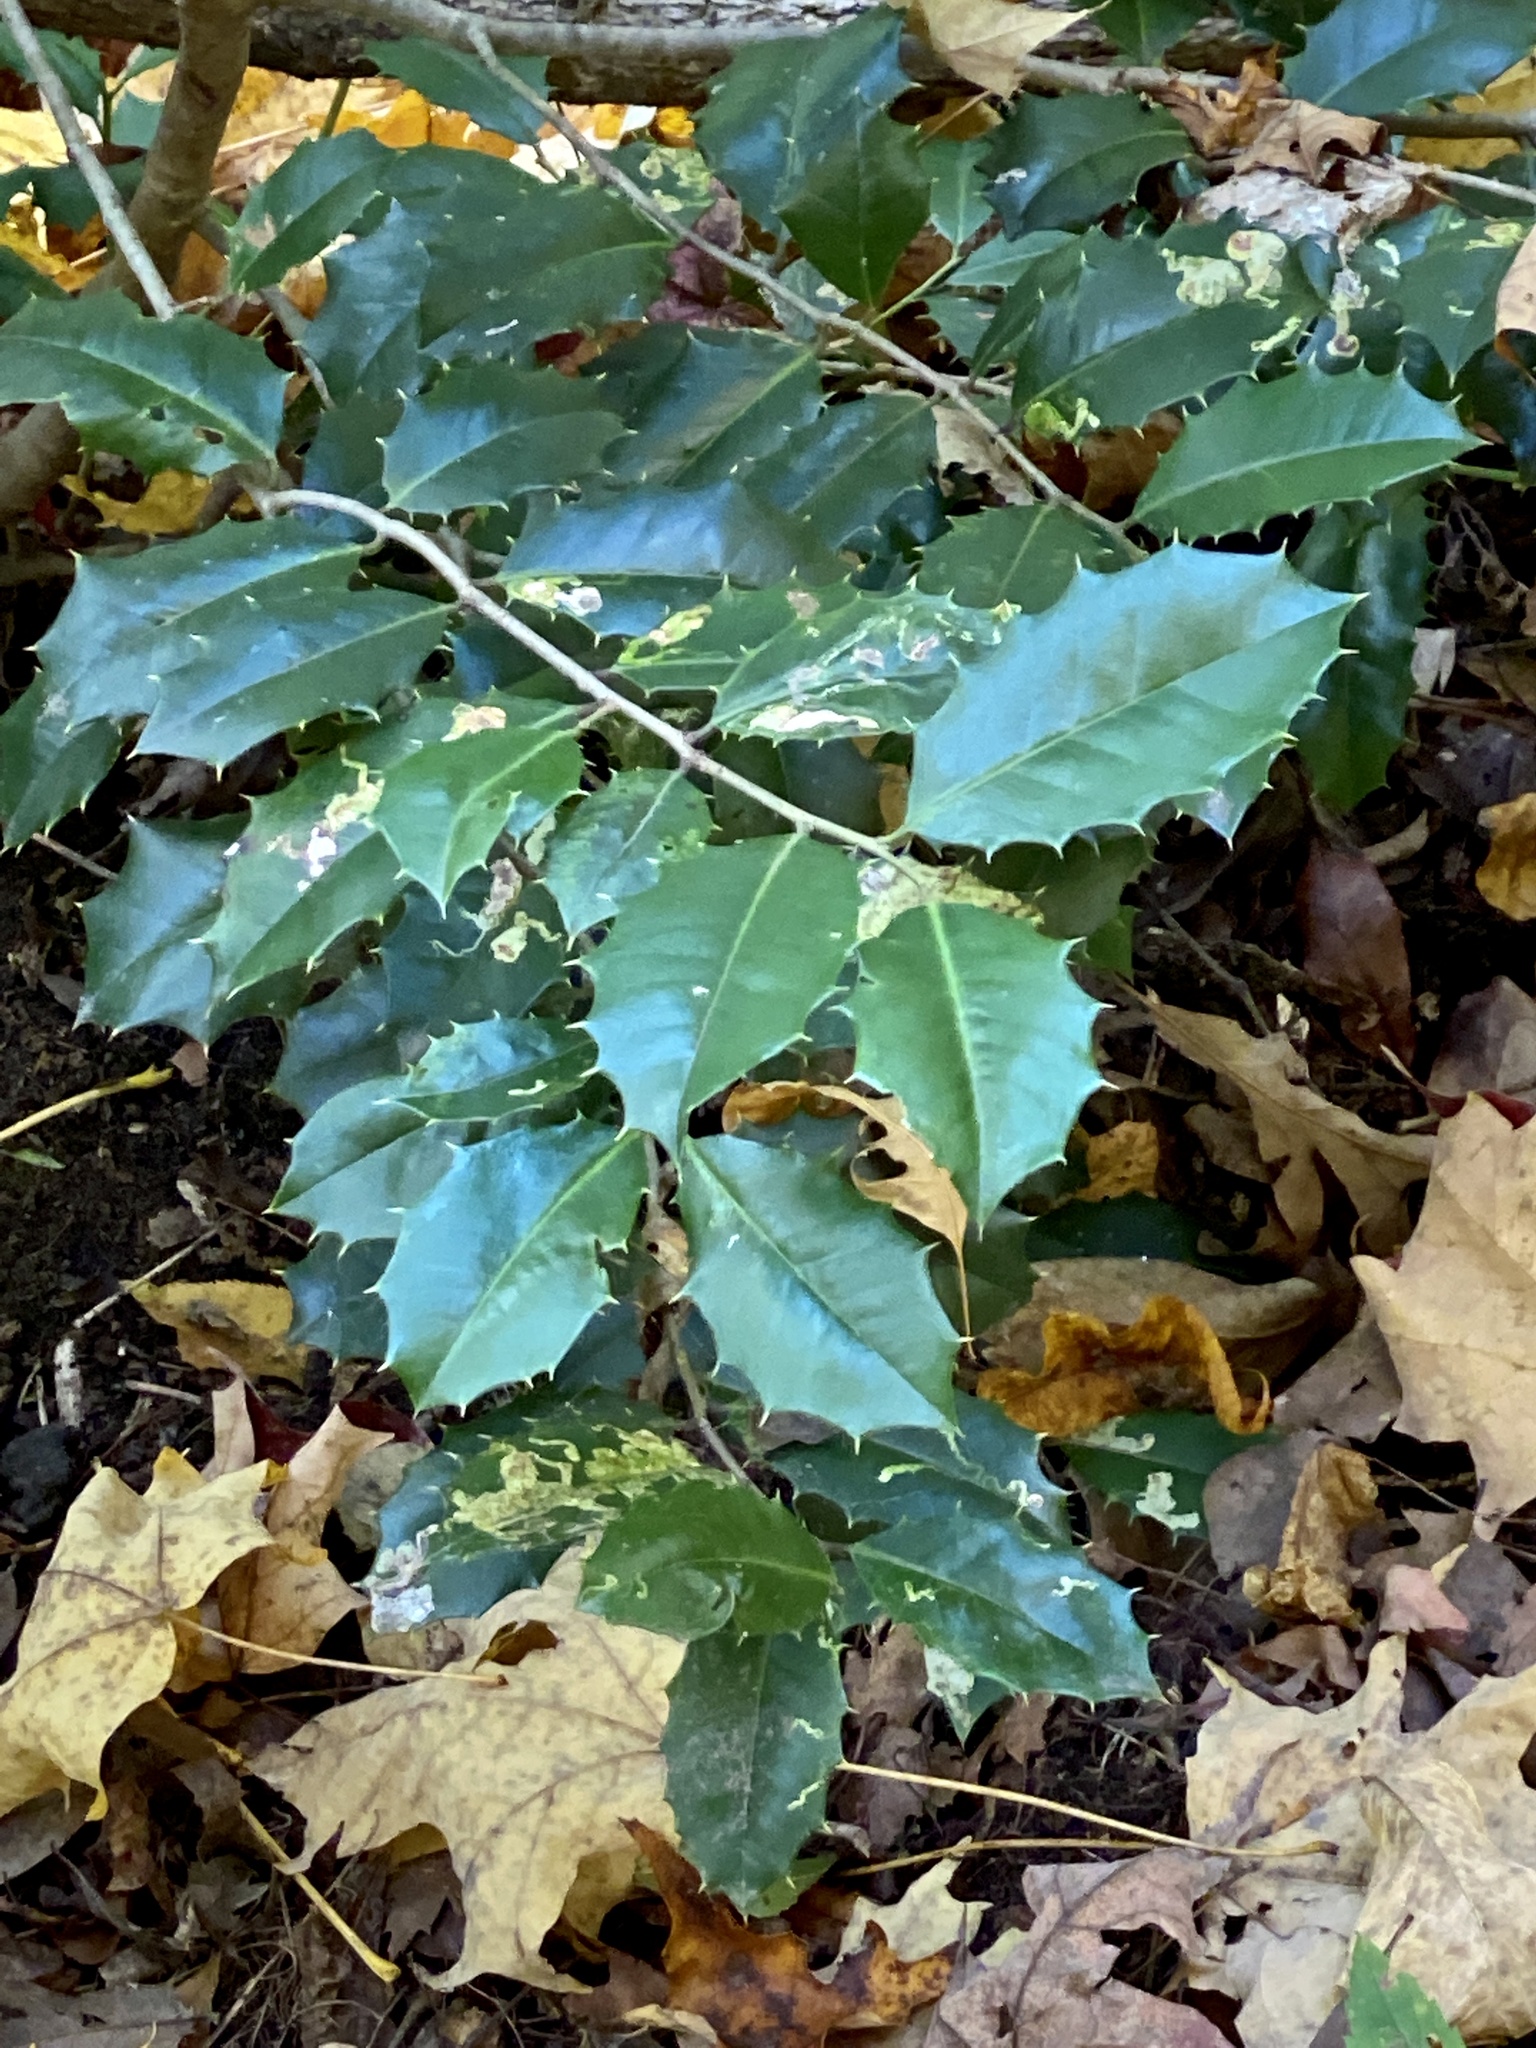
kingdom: Plantae
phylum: Tracheophyta
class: Magnoliopsida
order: Aquifoliales
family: Aquifoliaceae
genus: Ilex
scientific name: Ilex opaca
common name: American holly
